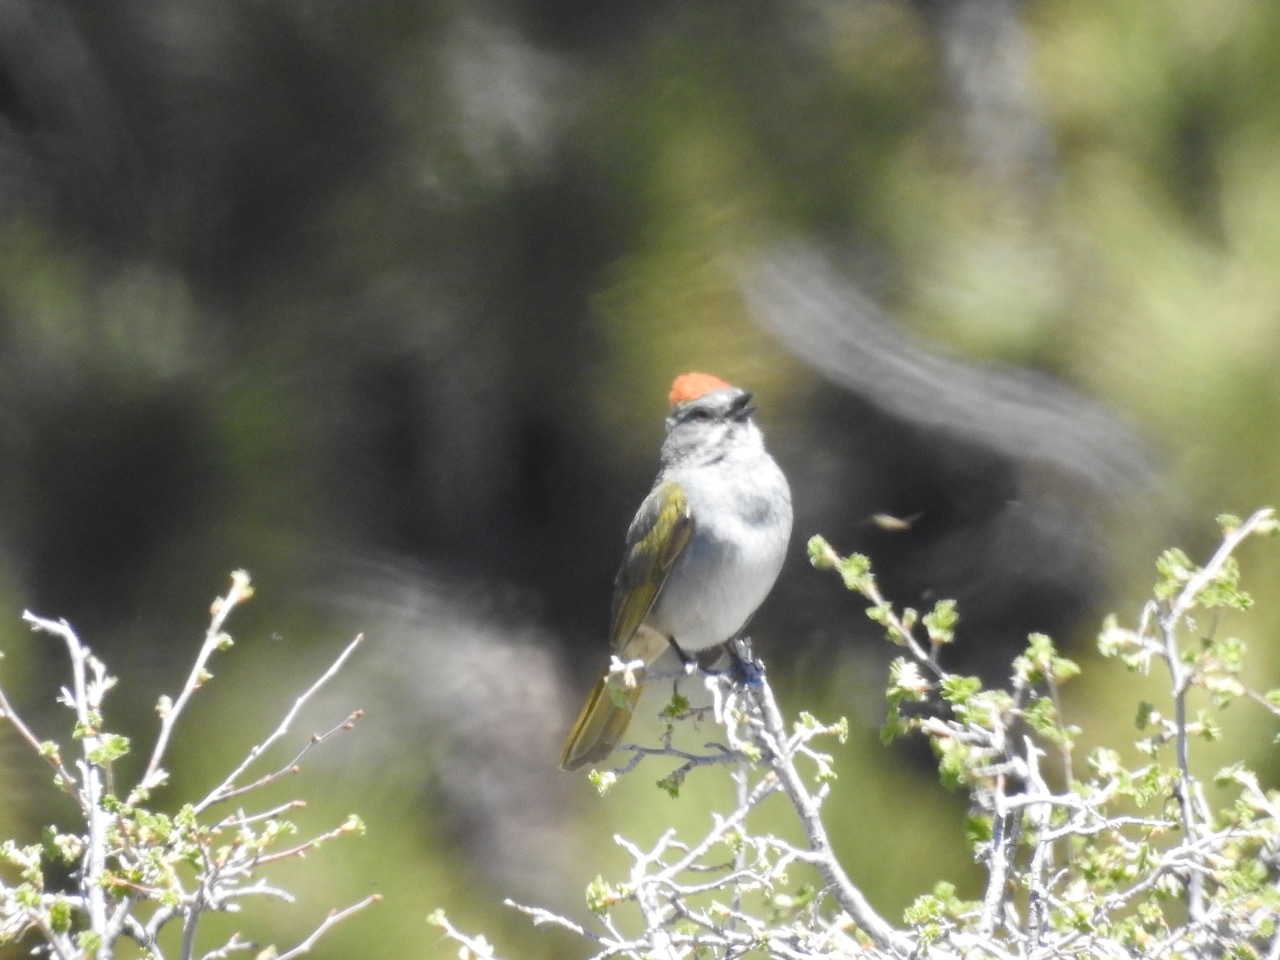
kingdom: Animalia
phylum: Chordata
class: Aves
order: Passeriformes
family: Passerellidae
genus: Pipilo
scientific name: Pipilo chlorurus
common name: Green-tailed towhee
